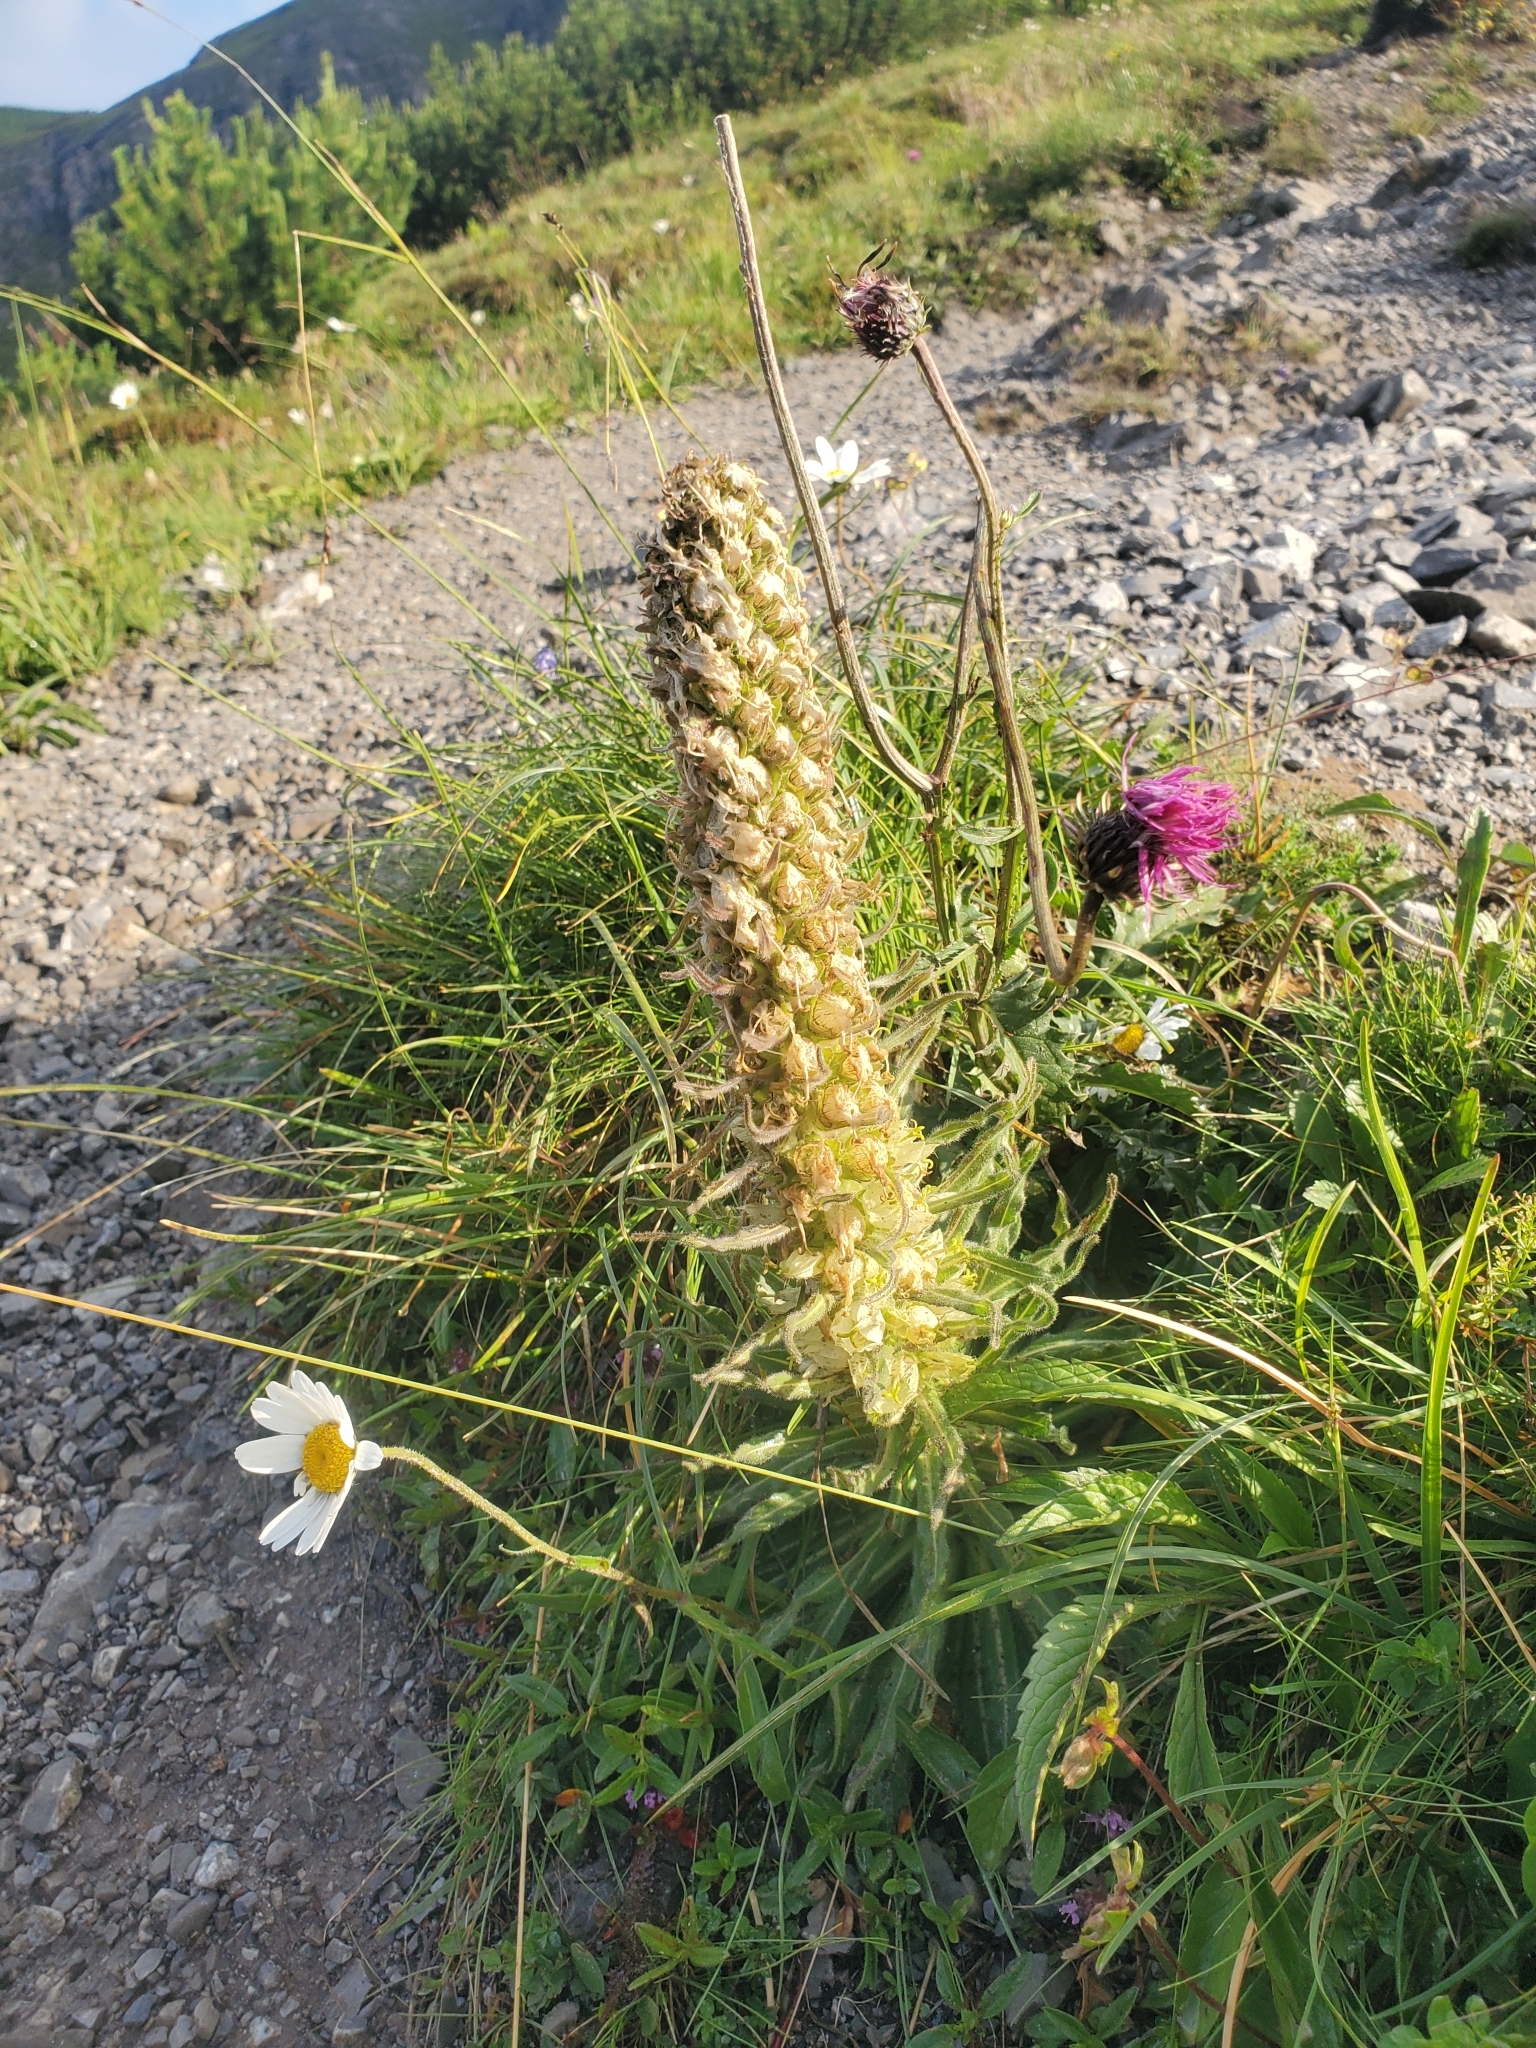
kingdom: Plantae
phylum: Tracheophyta
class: Magnoliopsida
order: Asterales
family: Campanulaceae
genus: Campanula
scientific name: Campanula thyrsoides
